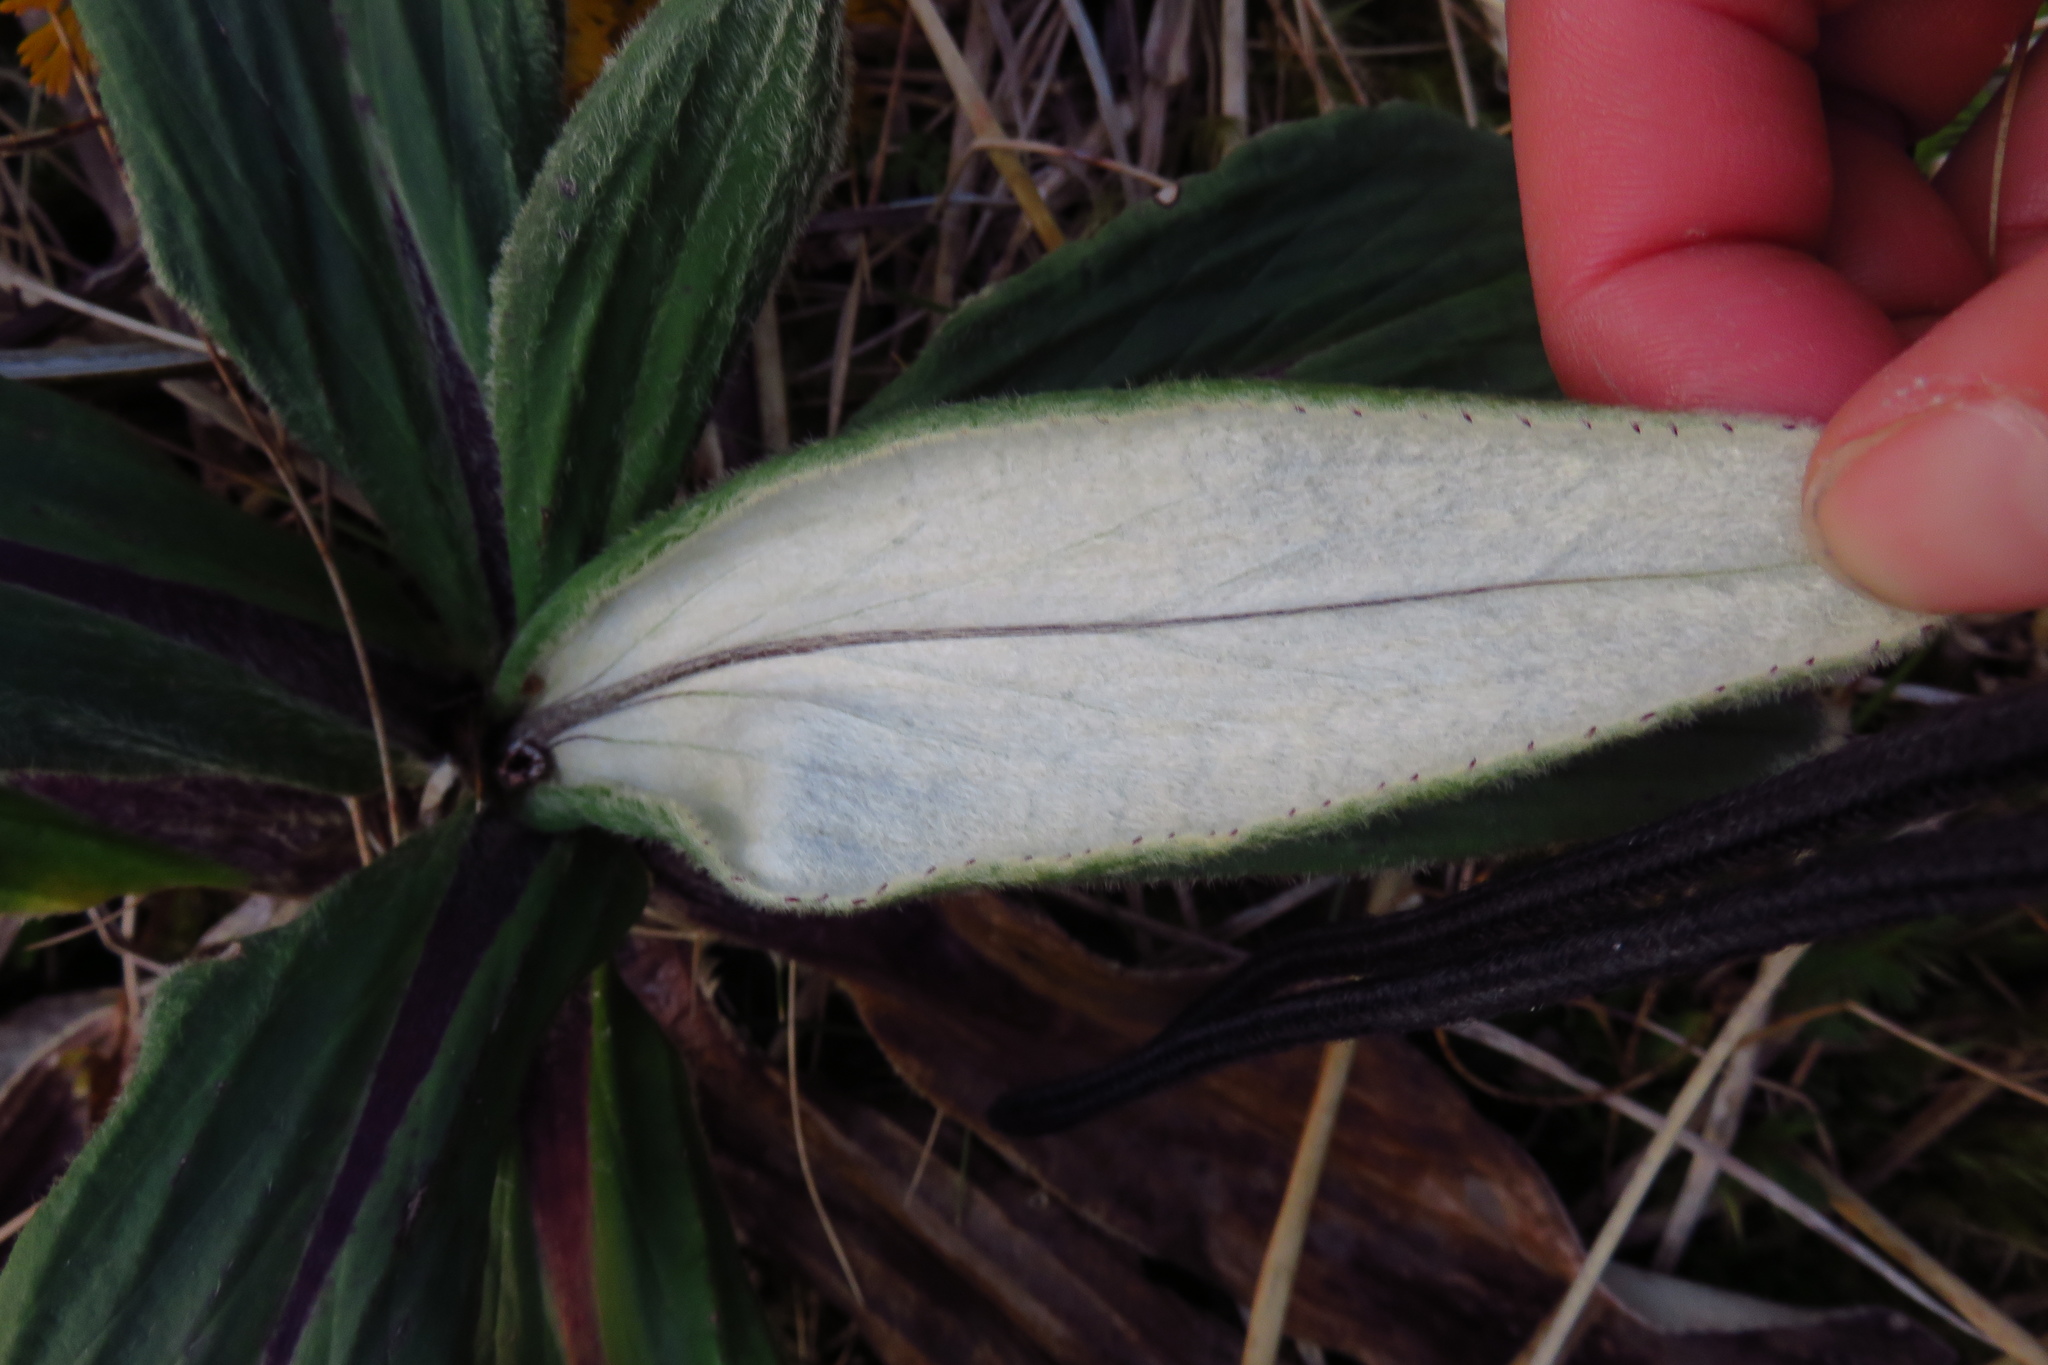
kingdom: Plantae
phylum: Tracheophyta
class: Magnoliopsida
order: Asterales
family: Asteraceae
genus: Celmisia
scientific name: Celmisia verbascifolia
